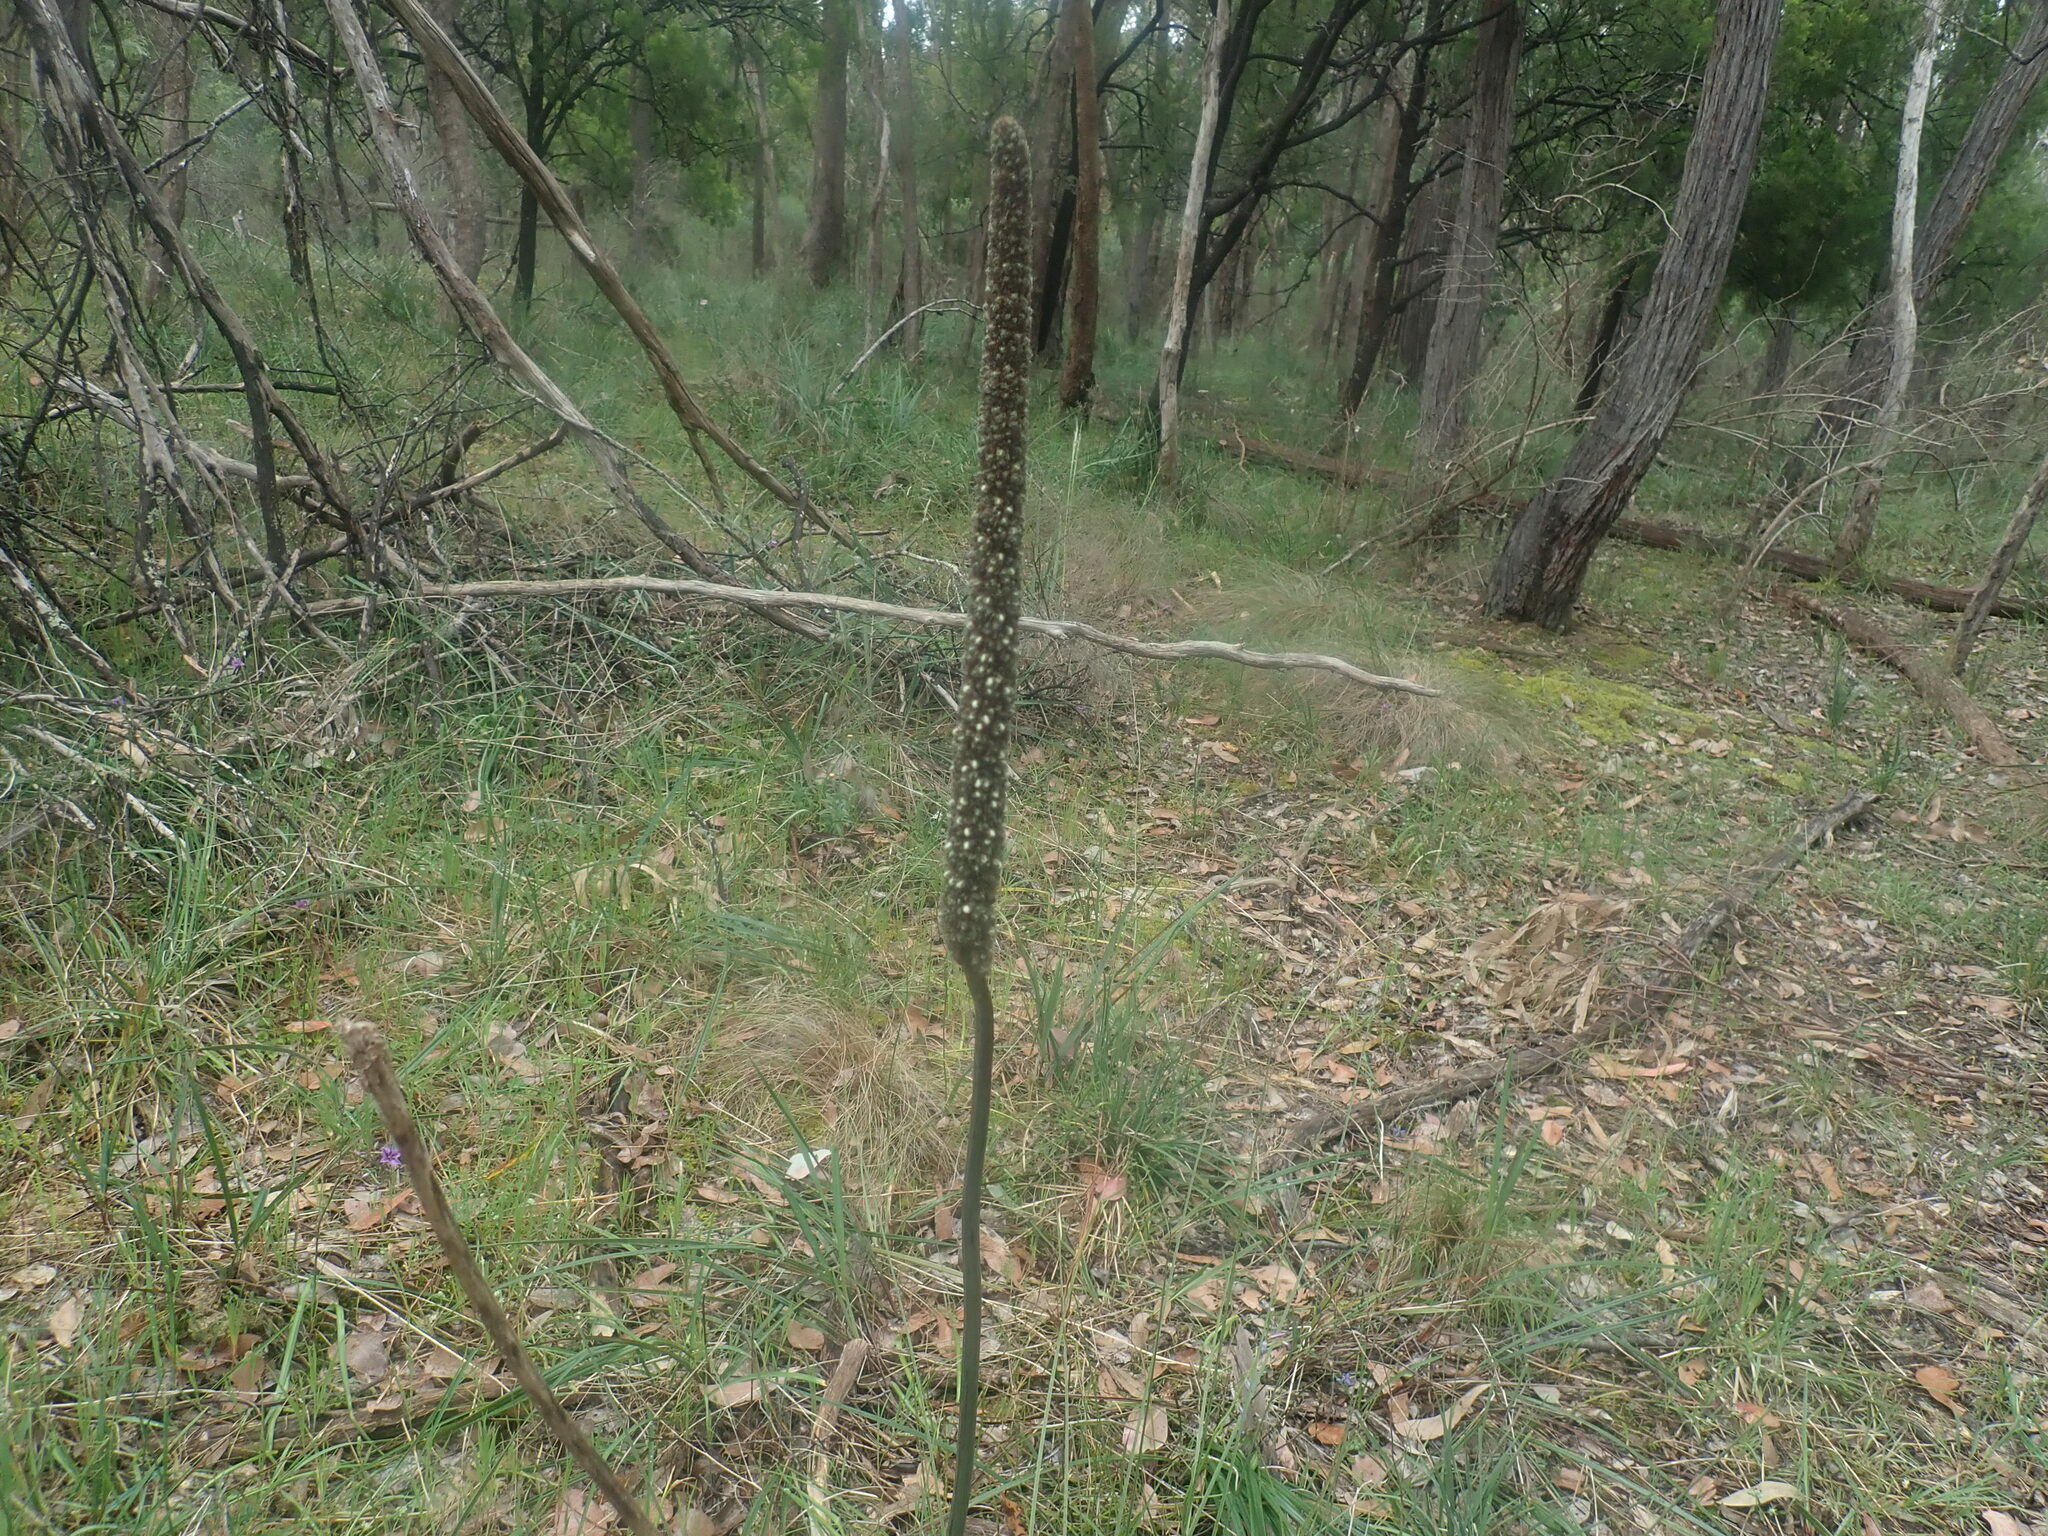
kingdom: Plantae
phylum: Tracheophyta
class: Liliopsida
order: Asparagales
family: Asphodelaceae
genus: Xanthorrhoea
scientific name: Xanthorrhoea minor
